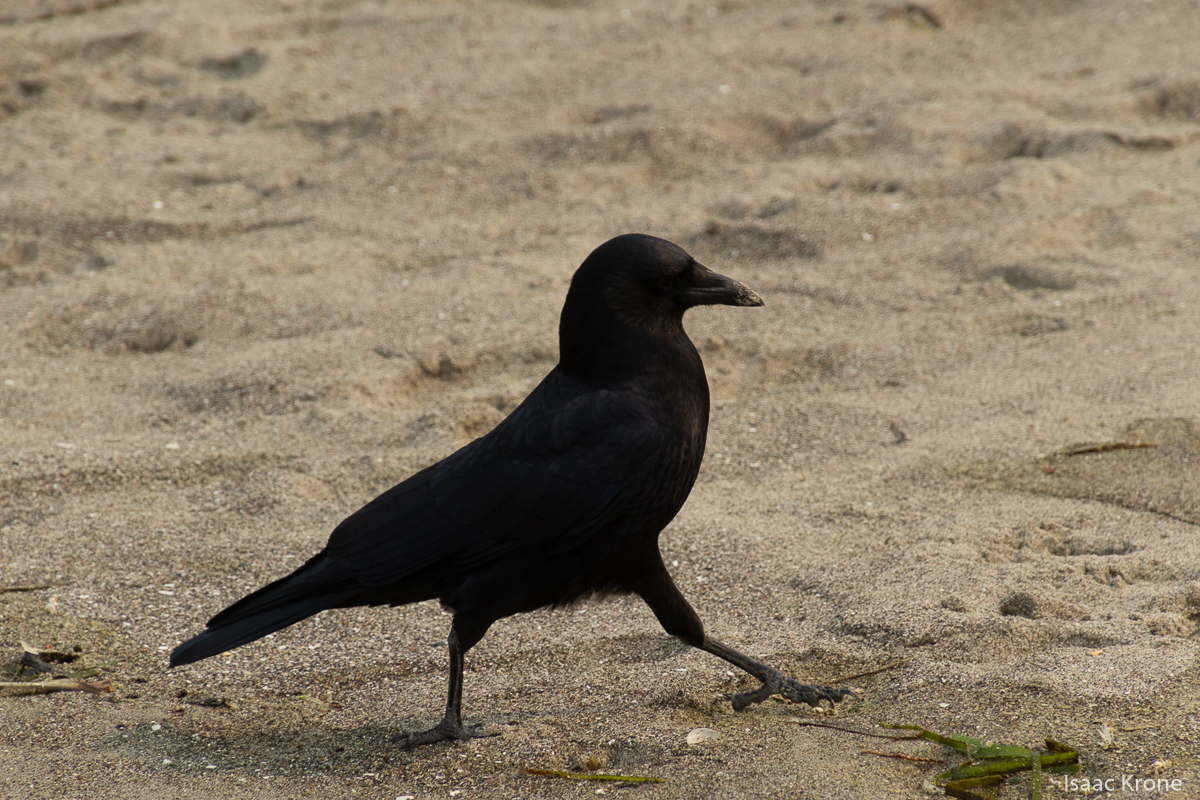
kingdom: Animalia
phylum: Chordata
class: Aves
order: Passeriformes
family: Corvidae
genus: Corvus
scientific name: Corvus brachyrhynchos
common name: American crow
